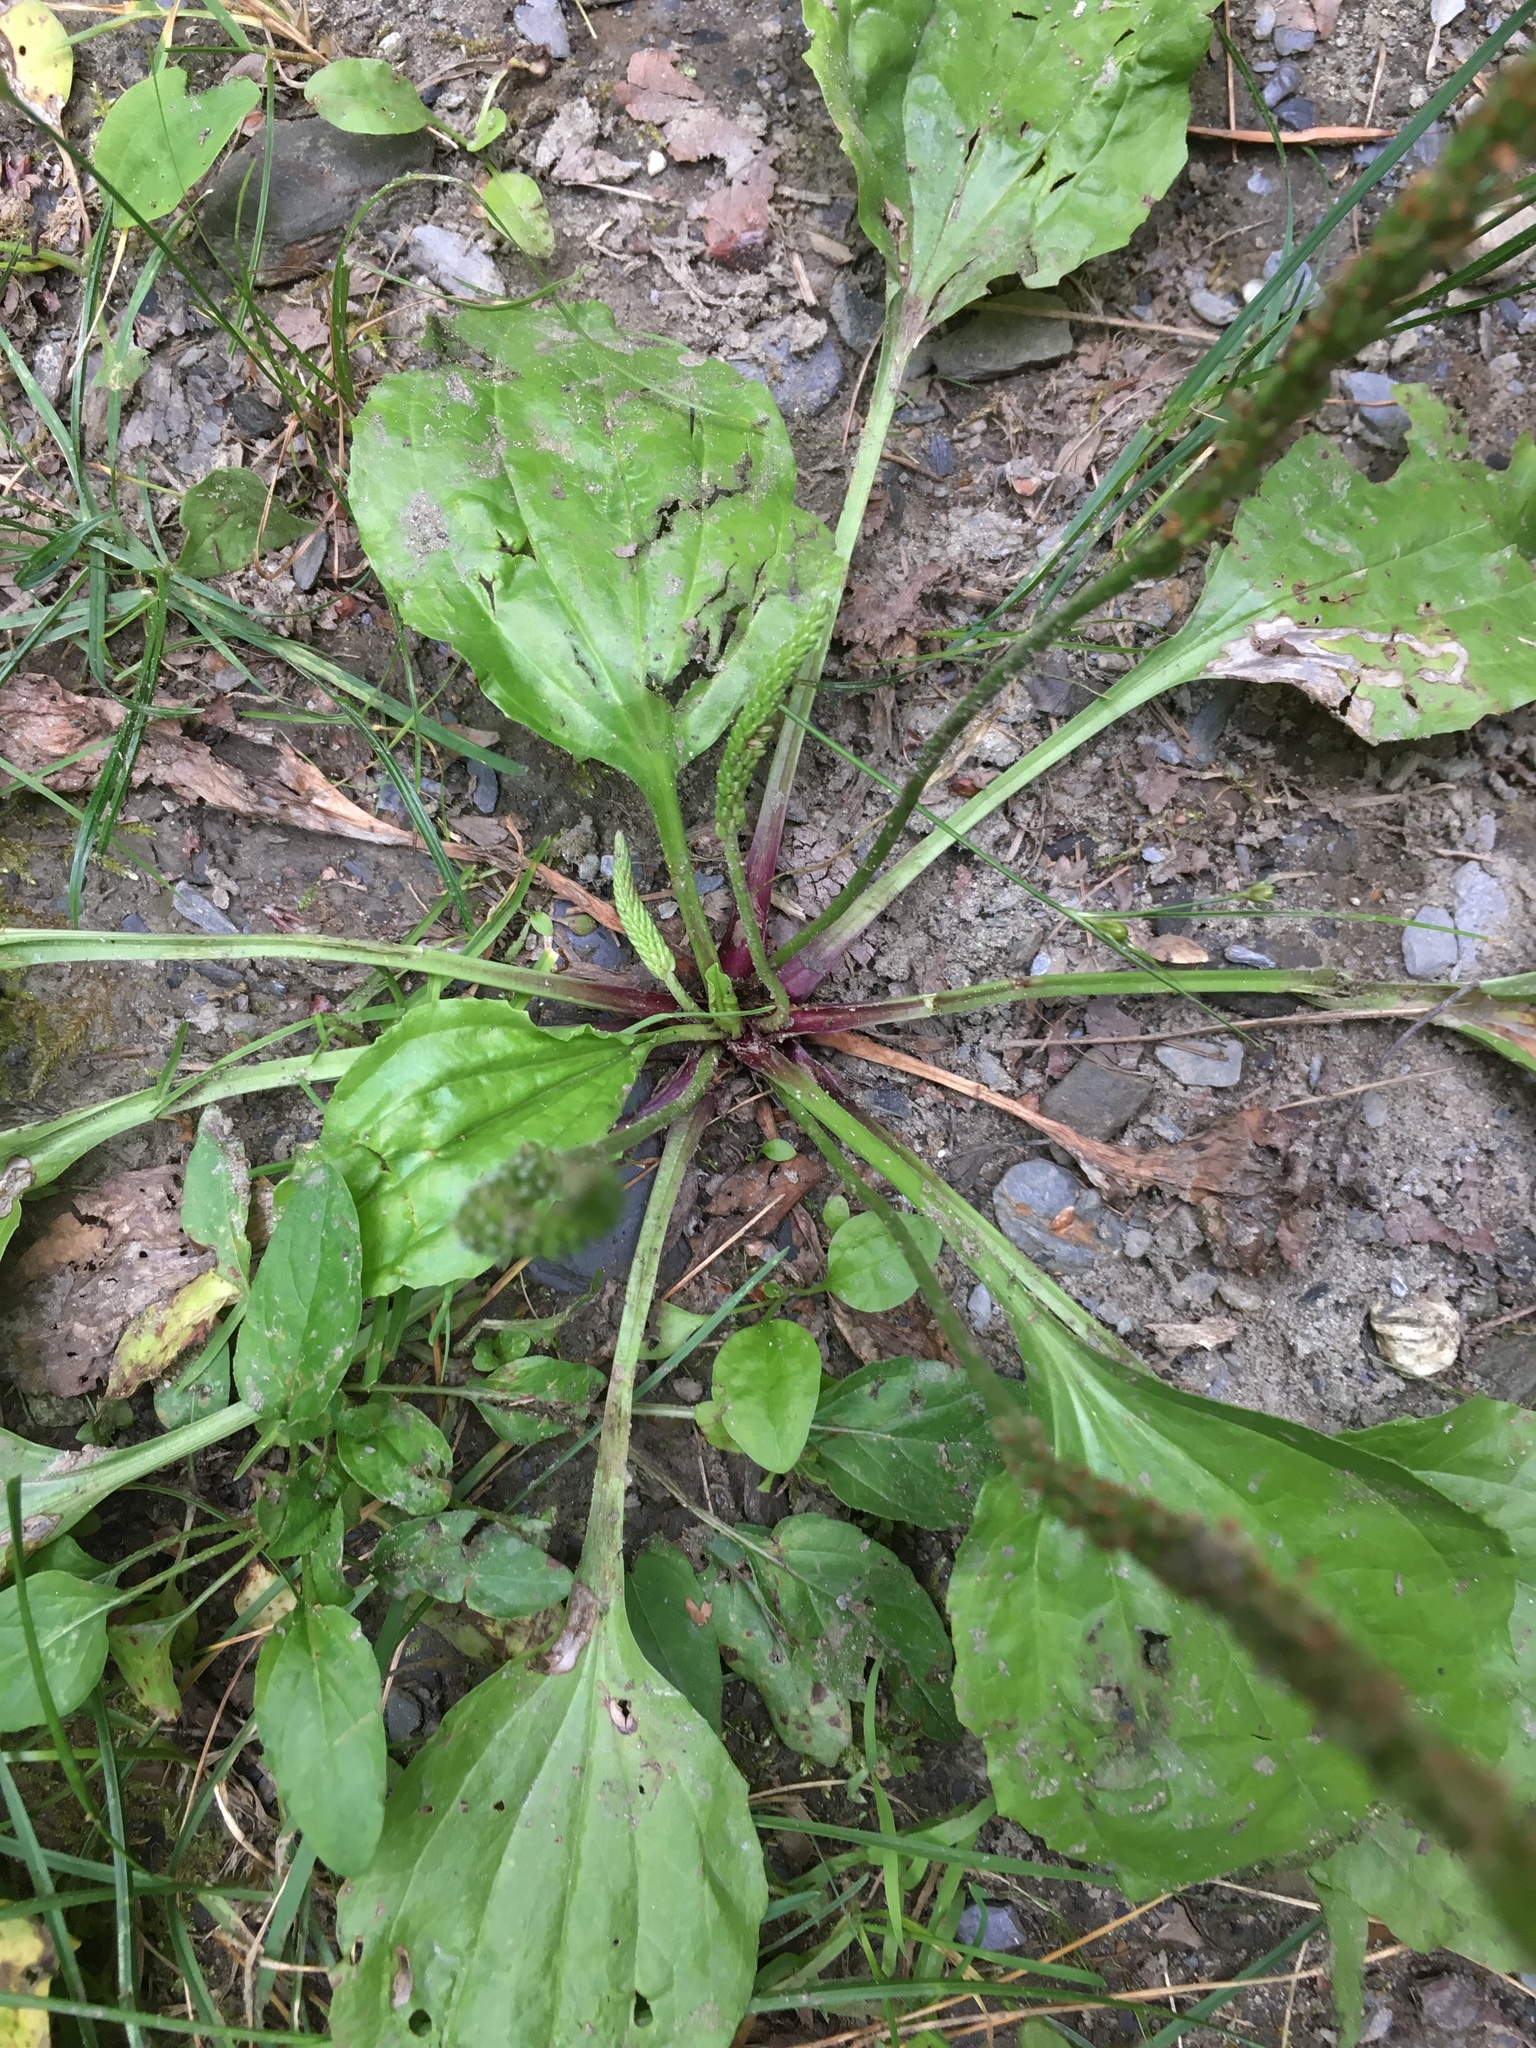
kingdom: Plantae
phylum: Tracheophyta
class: Magnoliopsida
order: Lamiales
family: Plantaginaceae
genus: Plantago
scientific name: Plantago rugelii
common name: American plantain
